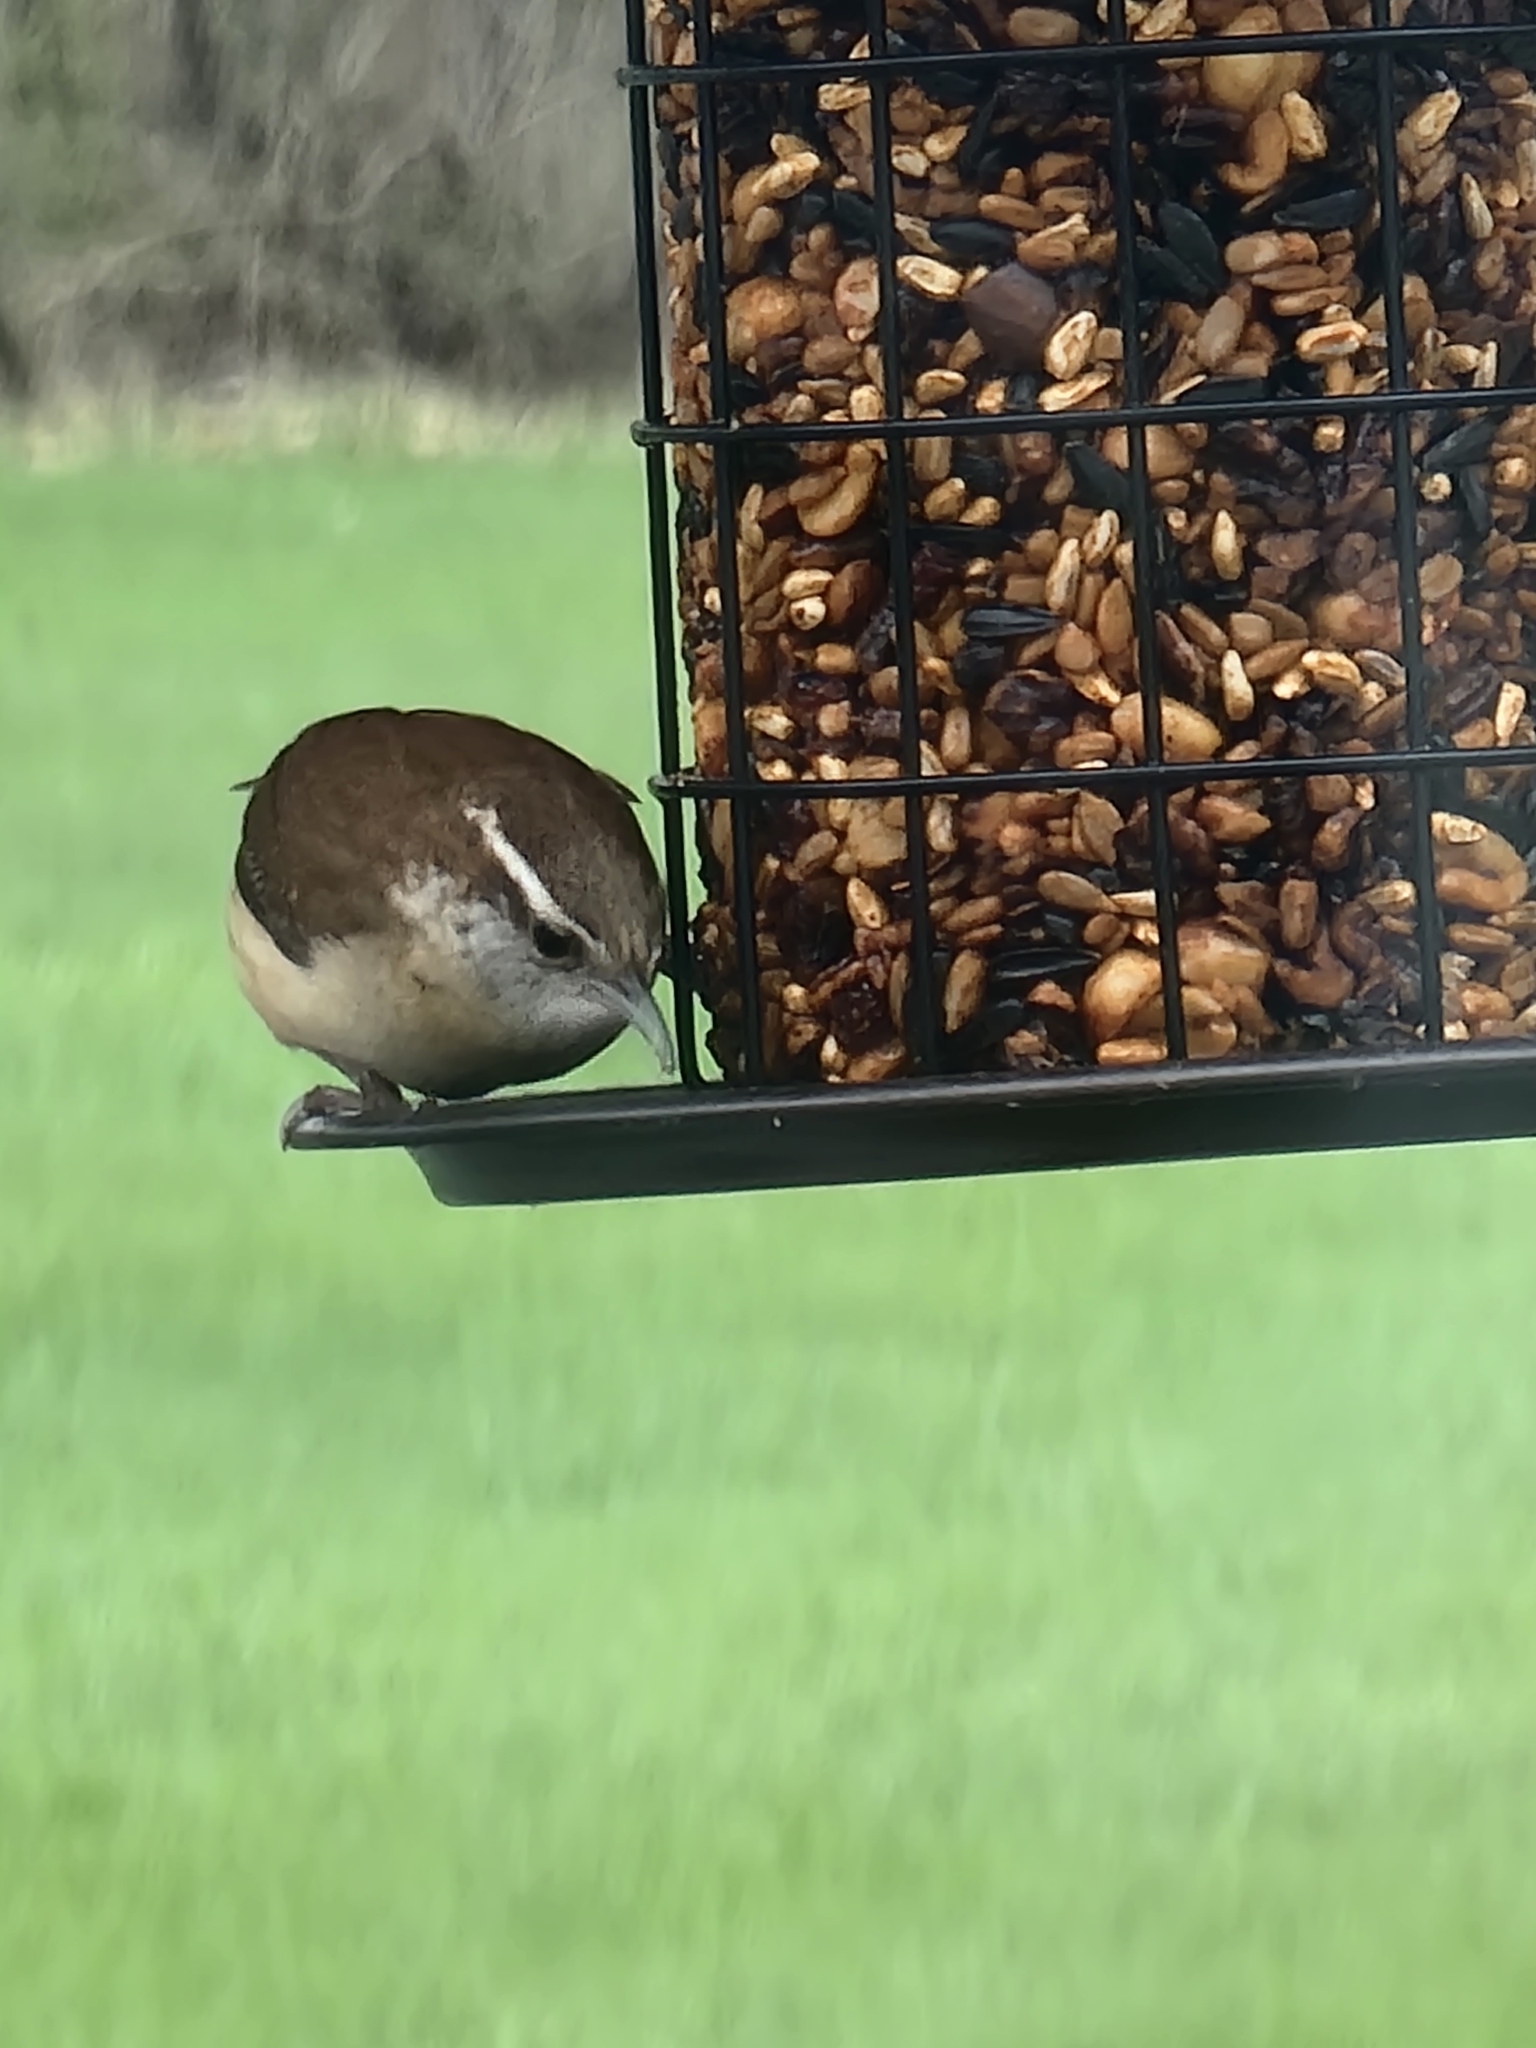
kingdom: Animalia
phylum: Chordata
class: Aves
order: Passeriformes
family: Troglodytidae
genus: Thryothorus
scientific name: Thryothorus ludovicianus
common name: Carolina wren
